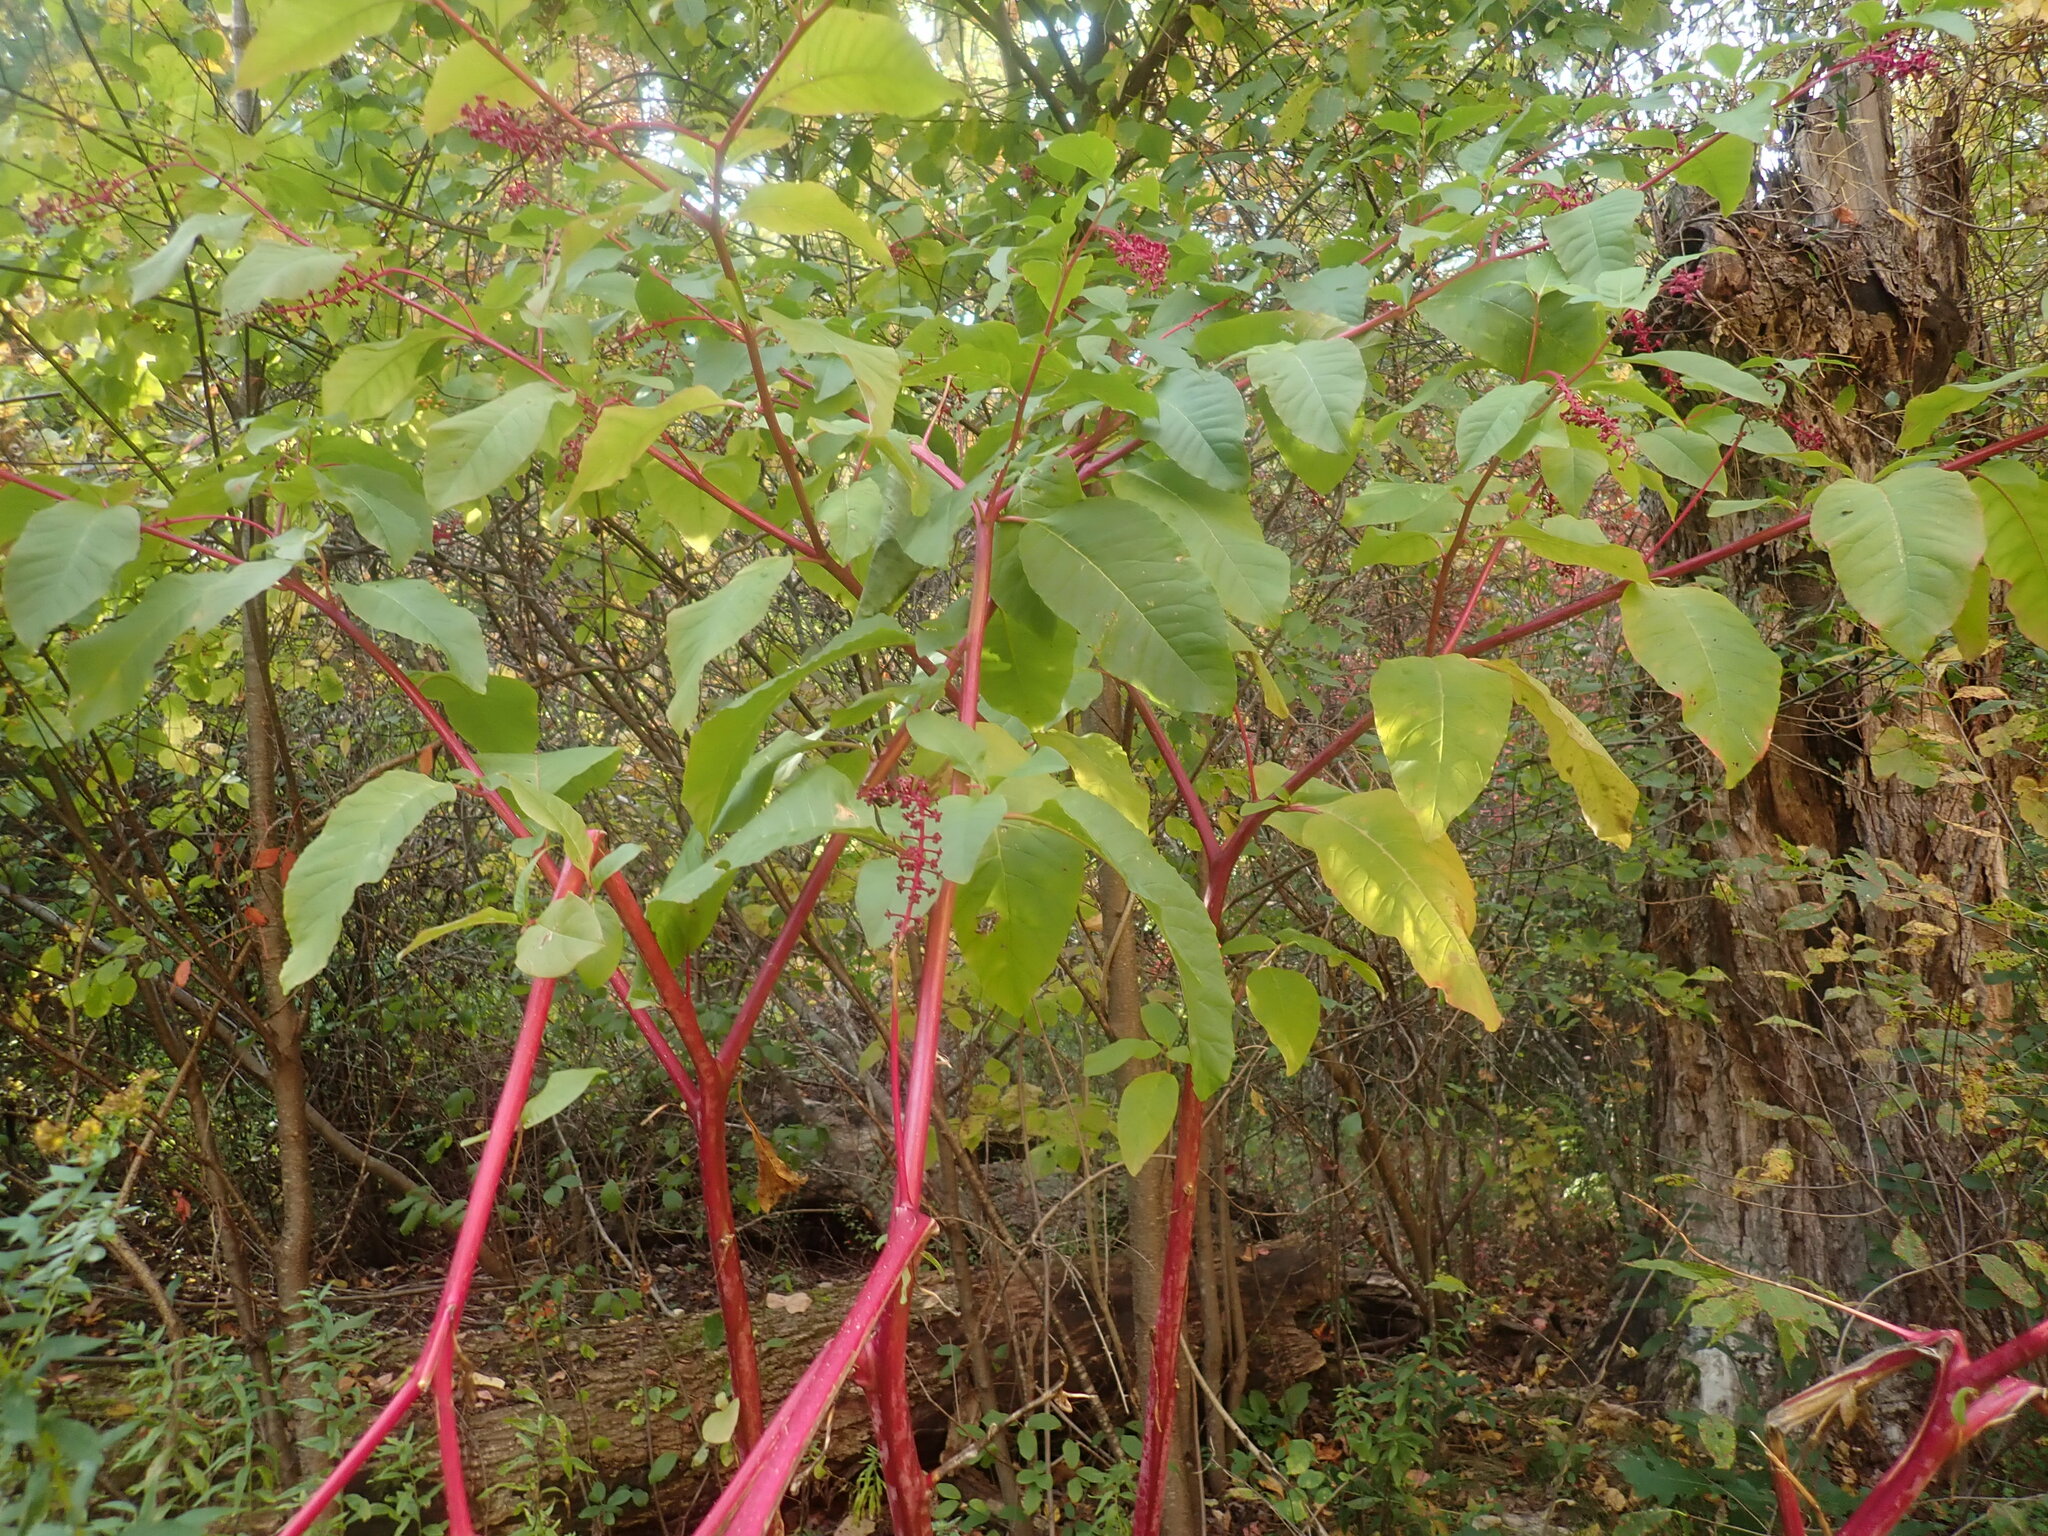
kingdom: Plantae
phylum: Tracheophyta
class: Magnoliopsida
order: Caryophyllales
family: Phytolaccaceae
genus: Phytolacca
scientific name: Phytolacca americana
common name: American pokeweed
